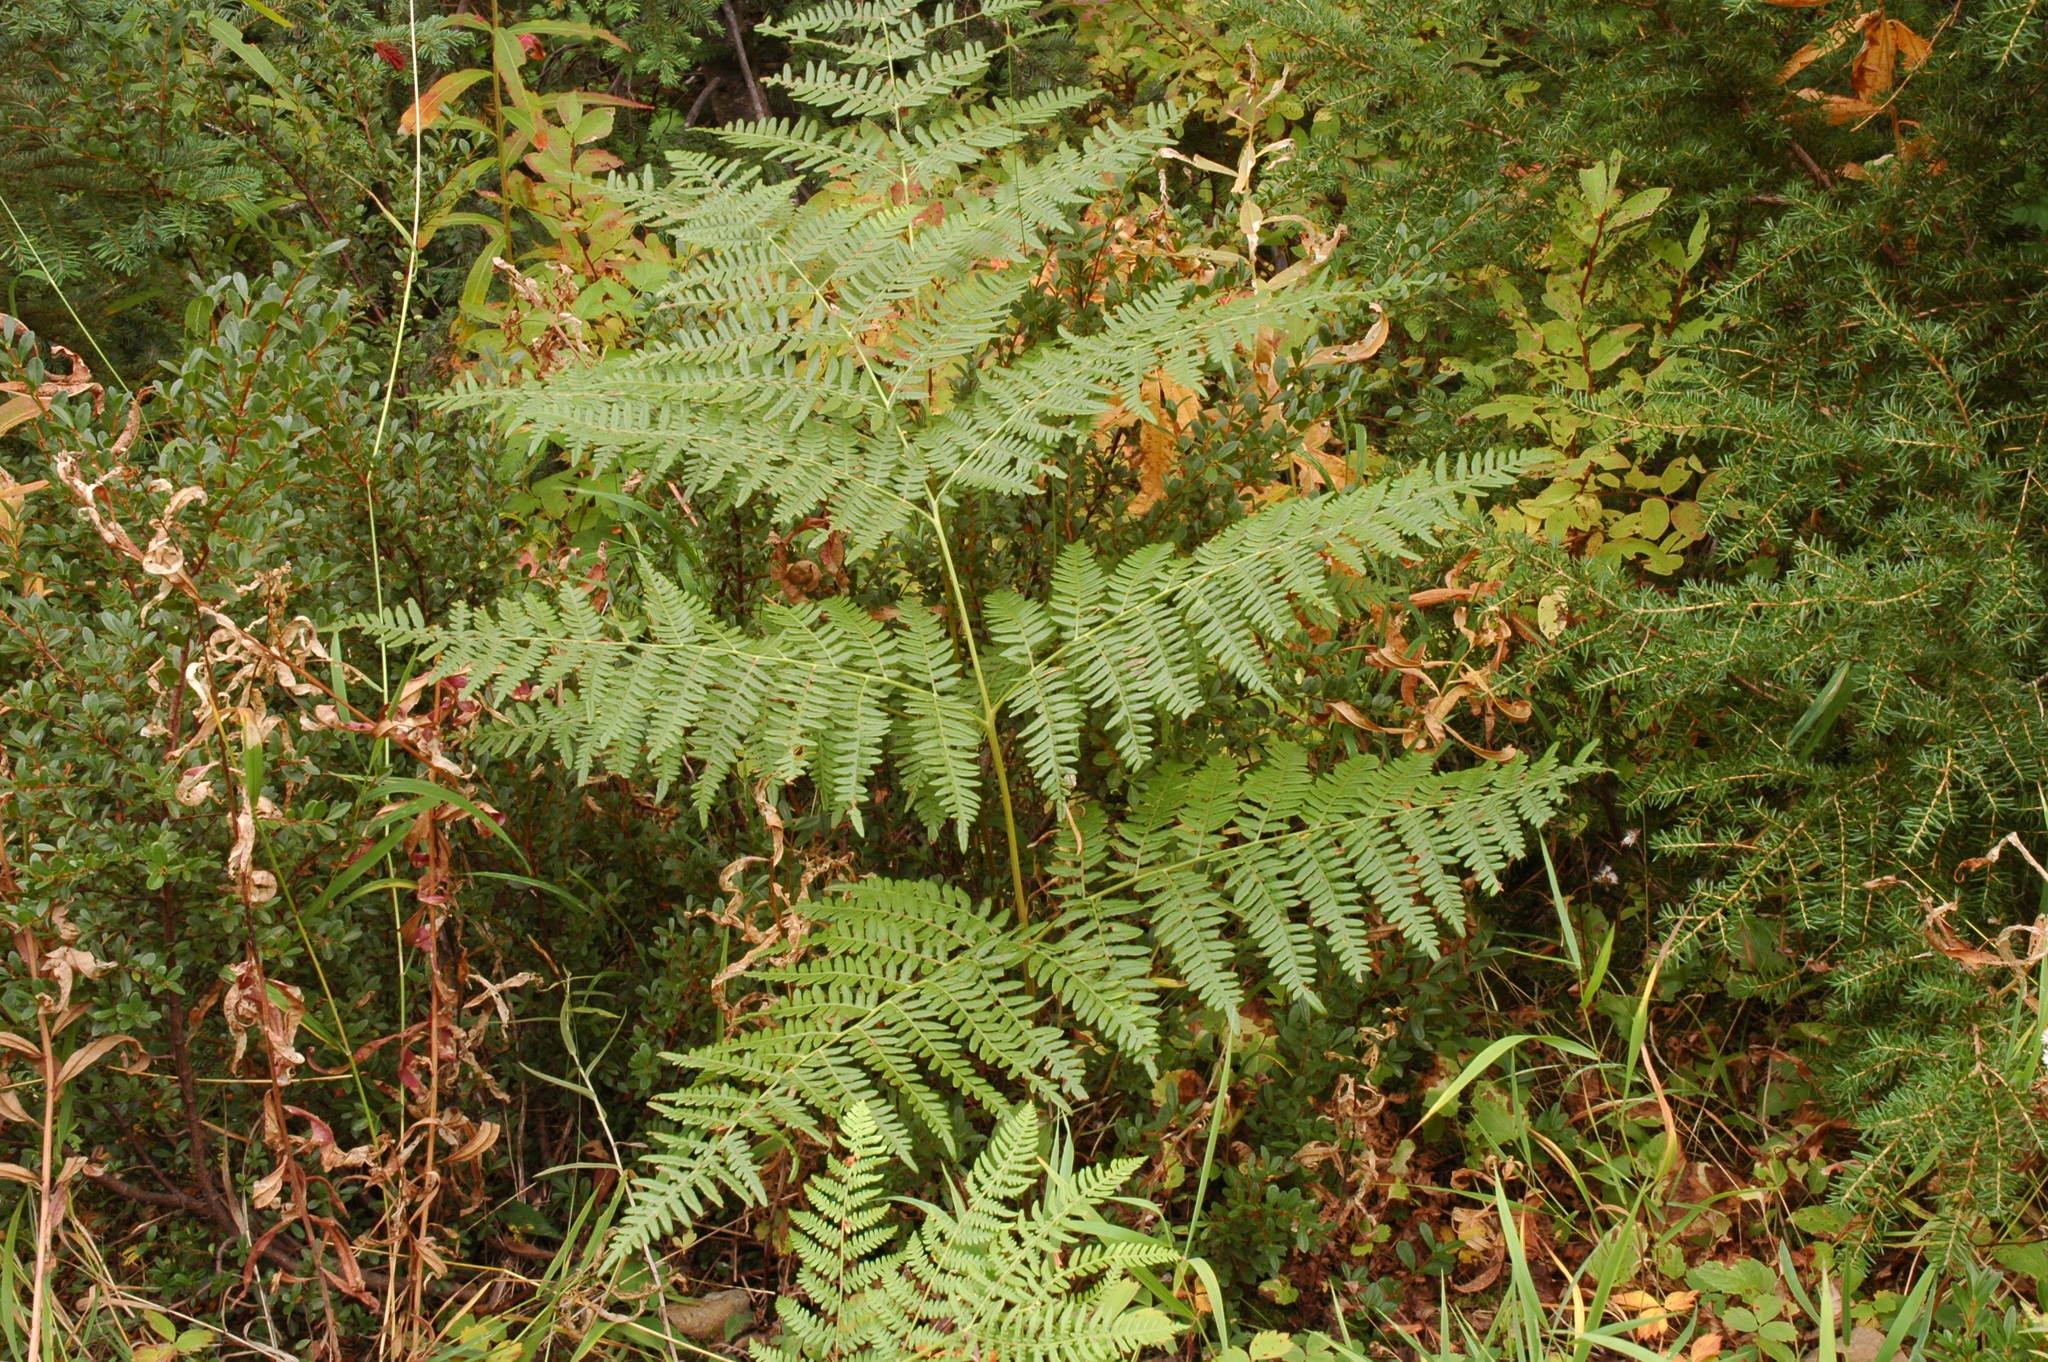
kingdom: Plantae
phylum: Tracheophyta
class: Polypodiopsida
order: Polypodiales
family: Dennstaedtiaceae
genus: Pteridium
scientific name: Pteridium aquilinum
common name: Bracken
